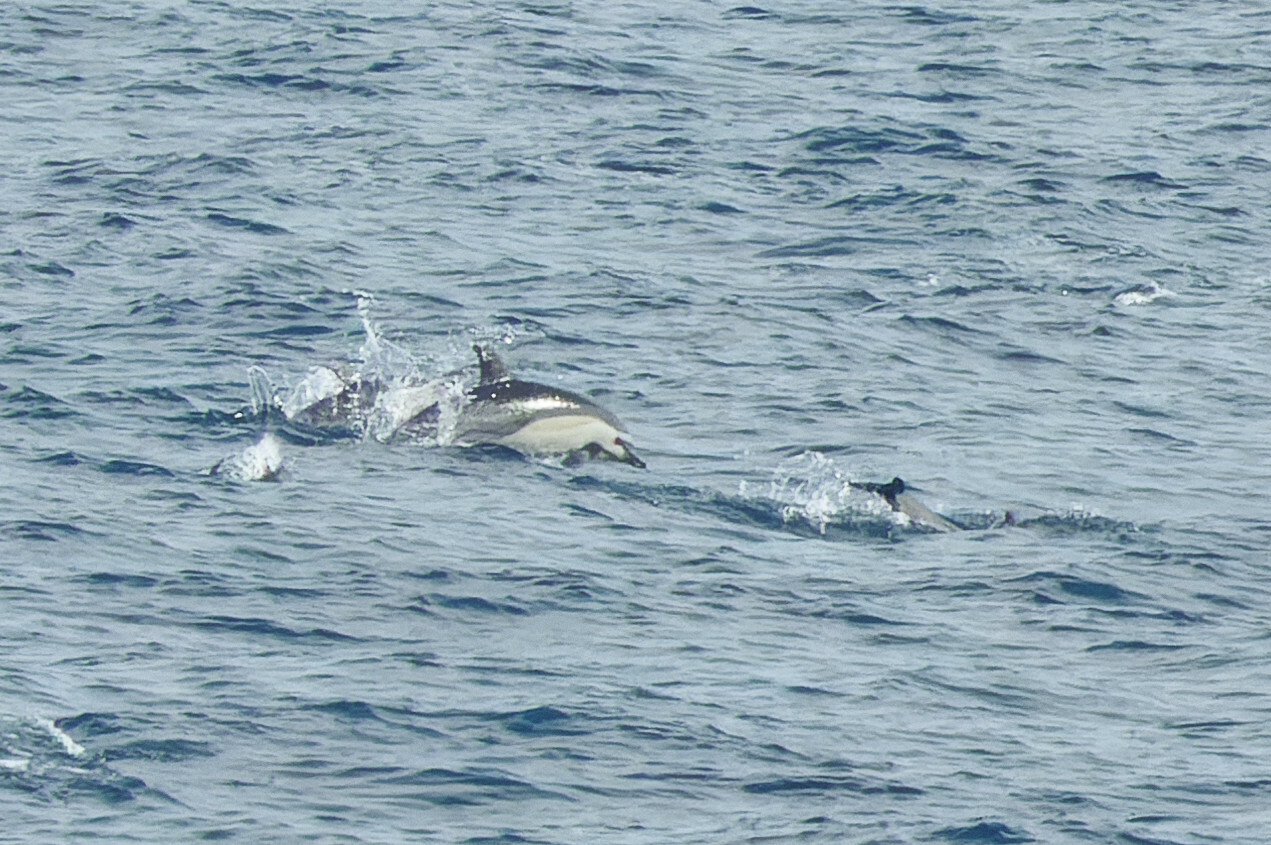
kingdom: Animalia
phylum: Chordata
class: Mammalia
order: Cetacea
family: Delphinidae
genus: Delphinus
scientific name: Delphinus delphis
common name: Common dolphin
